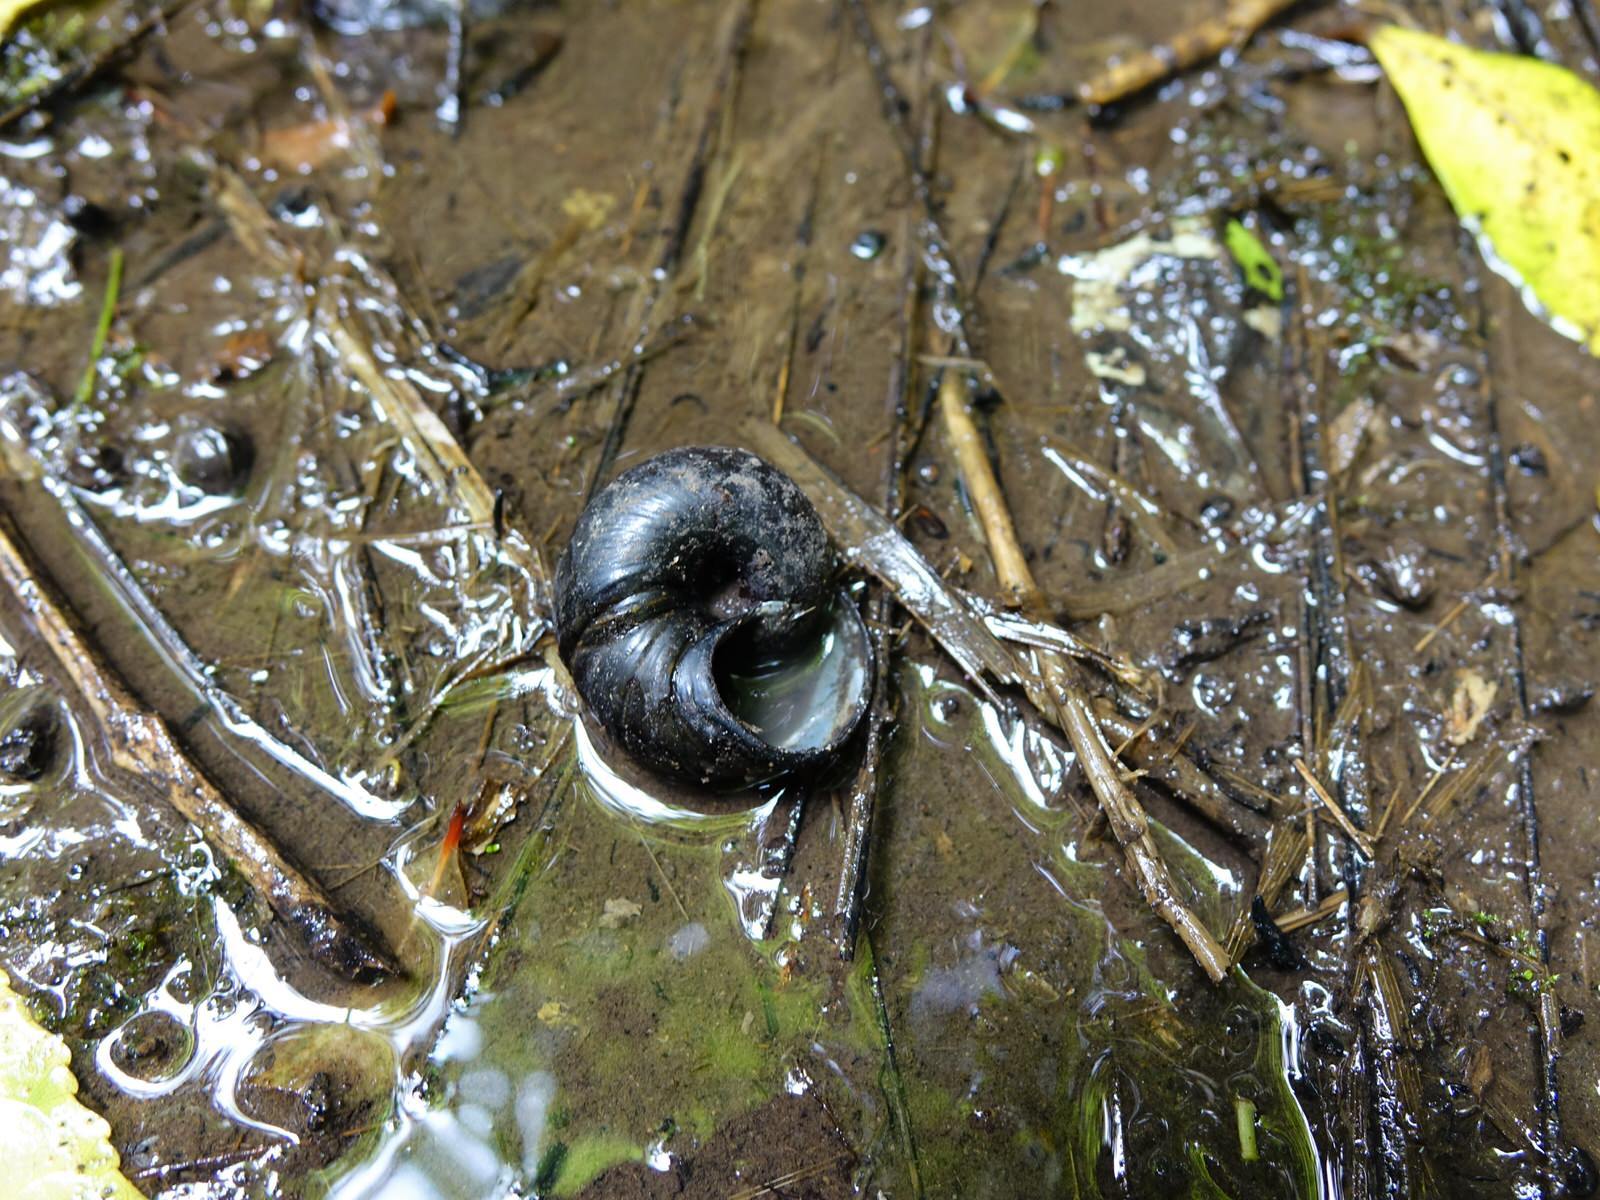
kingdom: Animalia
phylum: Mollusca
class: Gastropoda
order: Stylommatophora
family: Rhytididae
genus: Paryphanta
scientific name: Paryphanta busbyi
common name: Kauri snail
